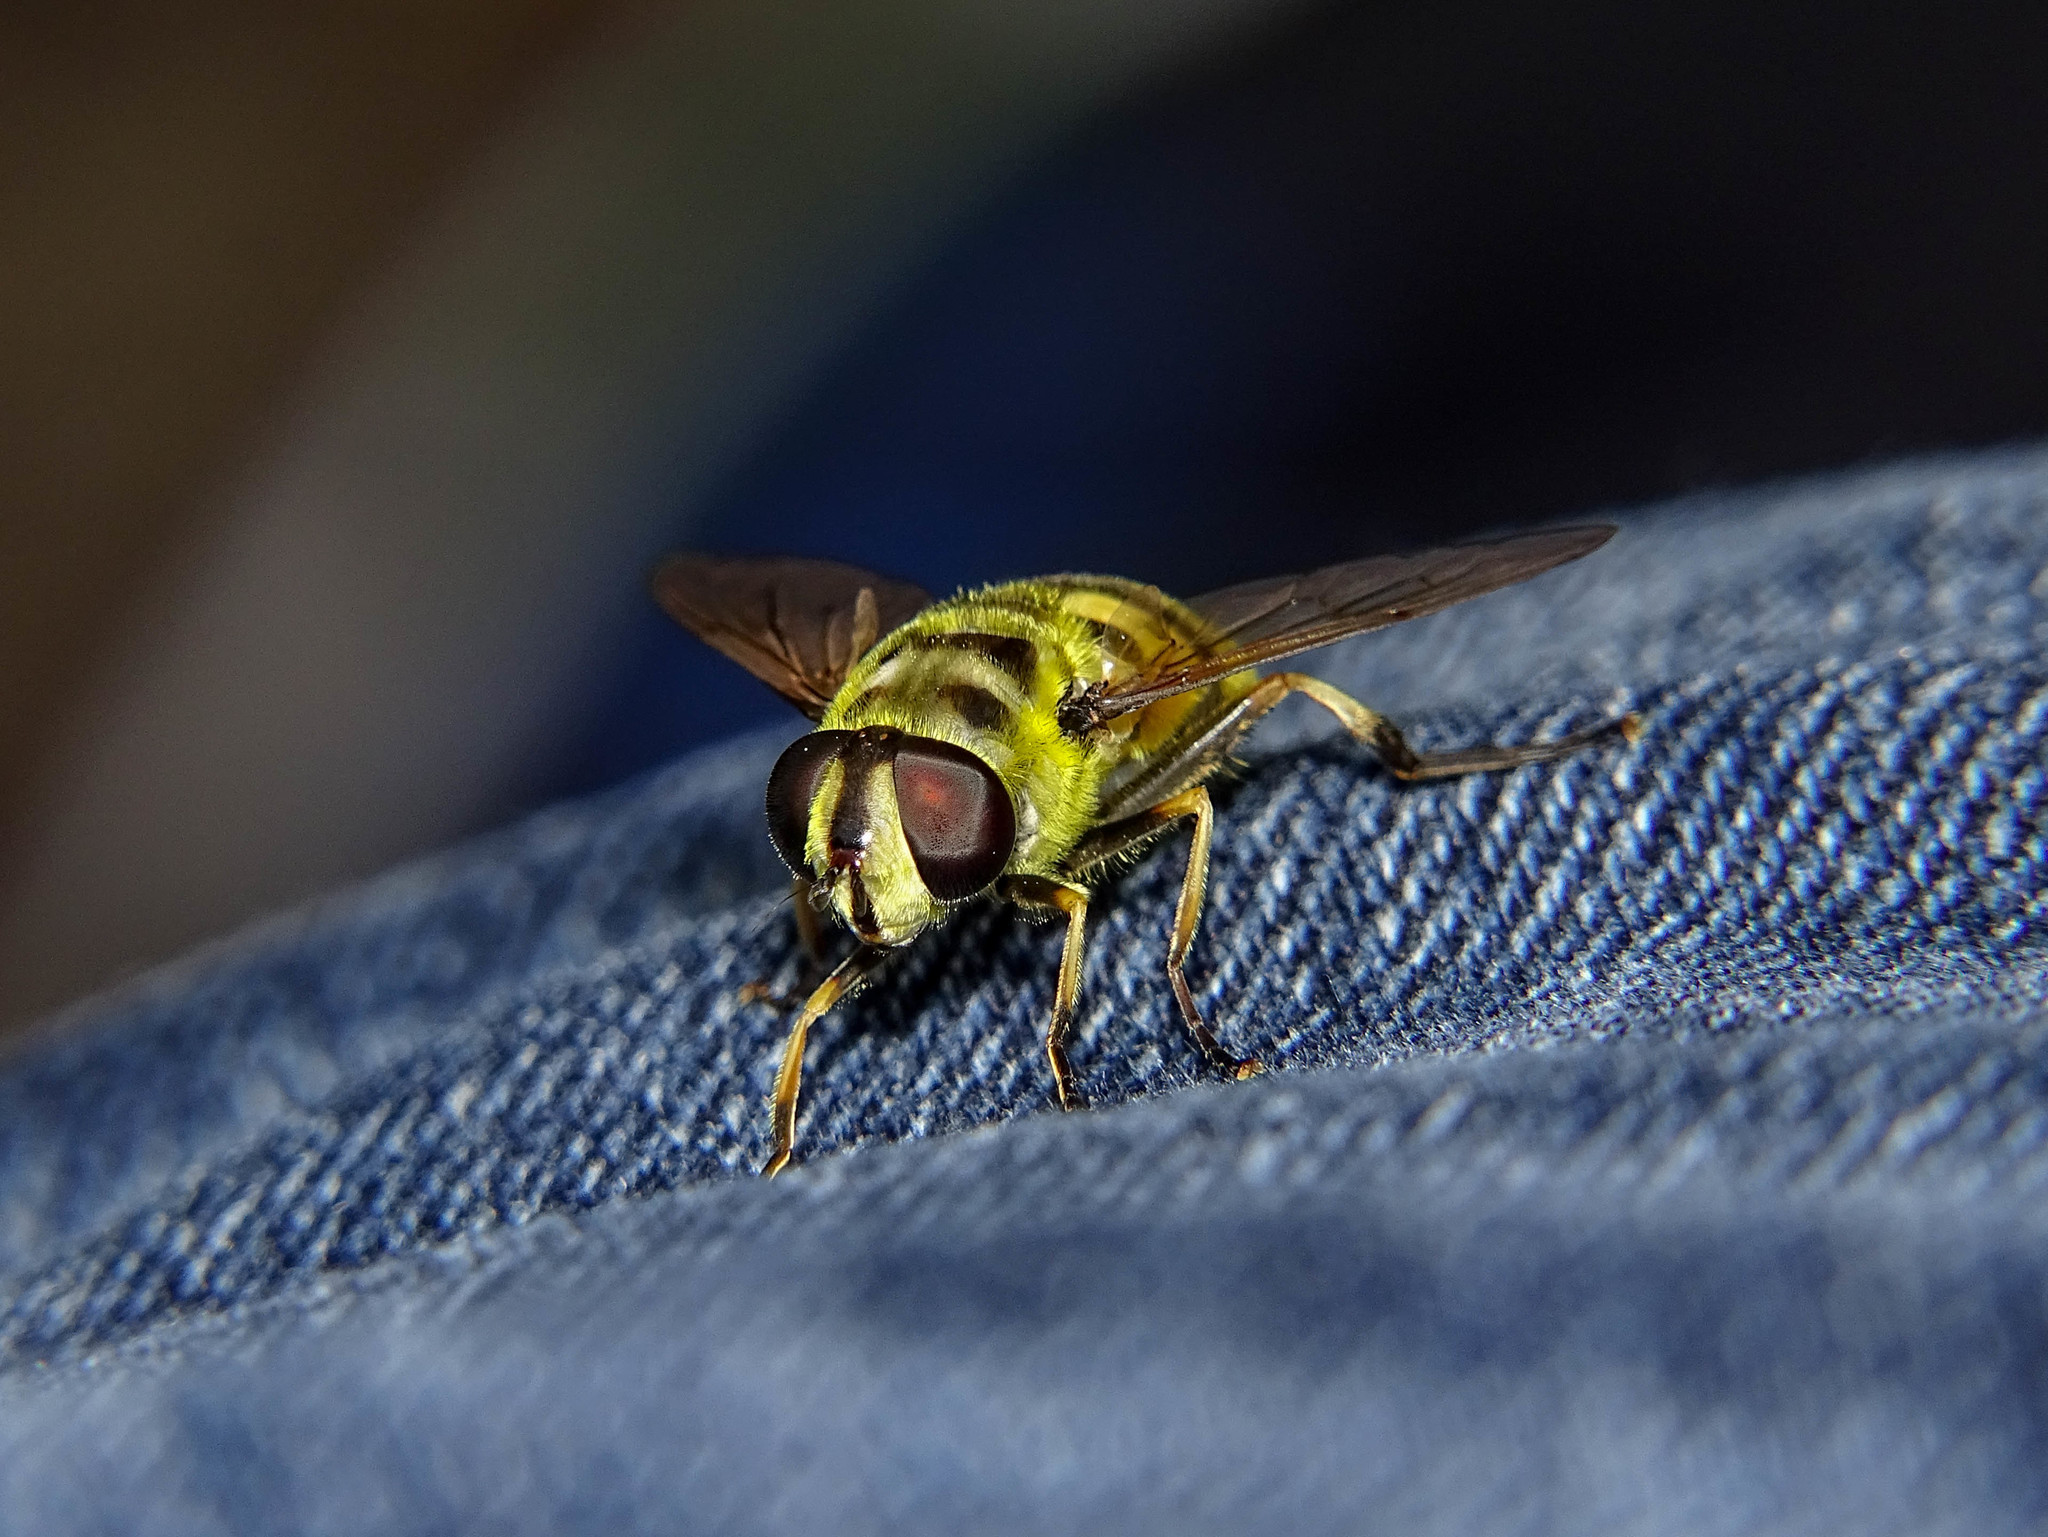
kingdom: Animalia
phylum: Arthropoda
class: Insecta
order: Diptera
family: Syrphidae
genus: Myathropa
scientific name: Myathropa florea
